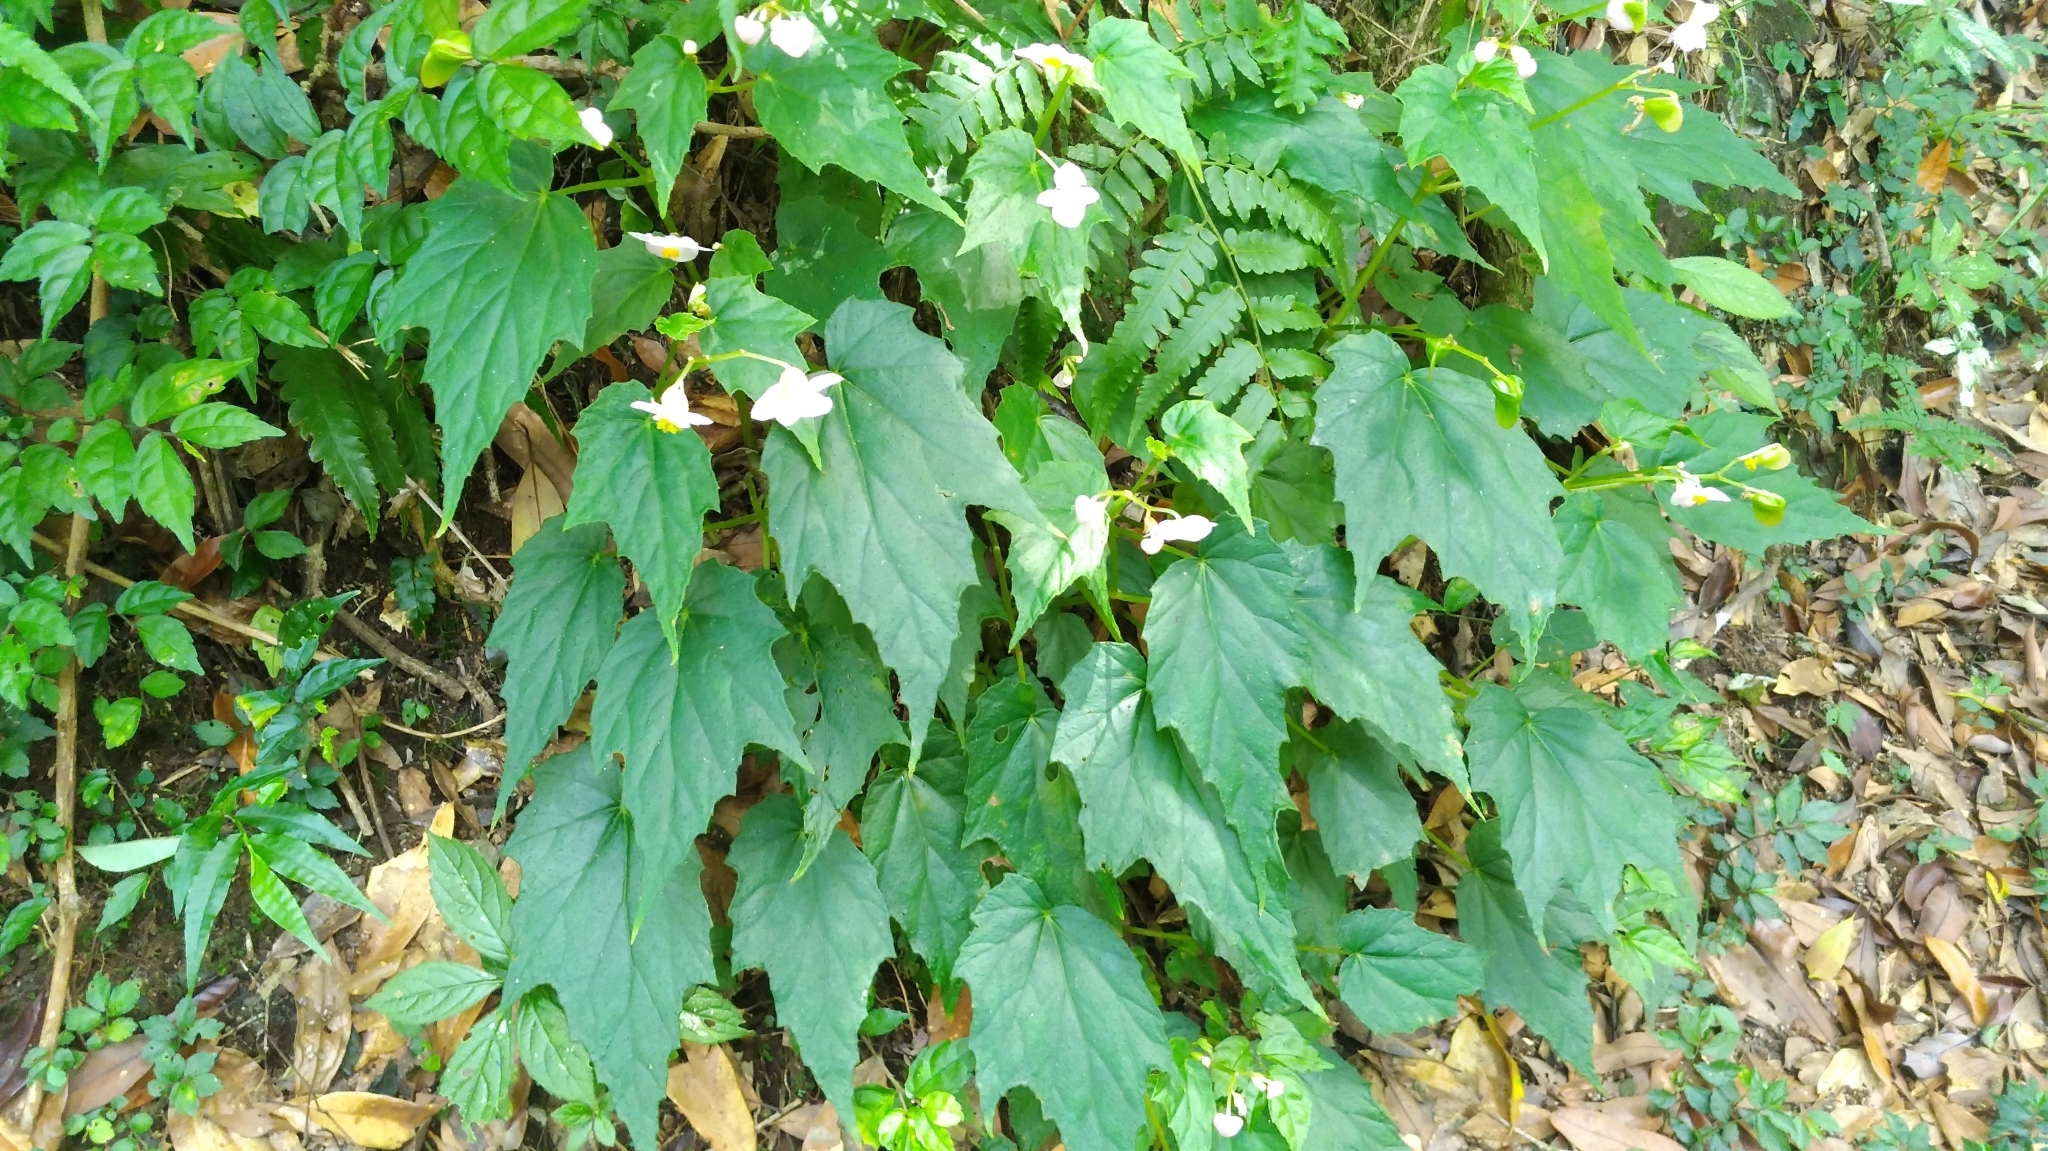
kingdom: Plantae
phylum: Tracheophyta
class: Magnoliopsida
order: Cucurbitales
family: Begoniaceae
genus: Begonia
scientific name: Begonia formosana
